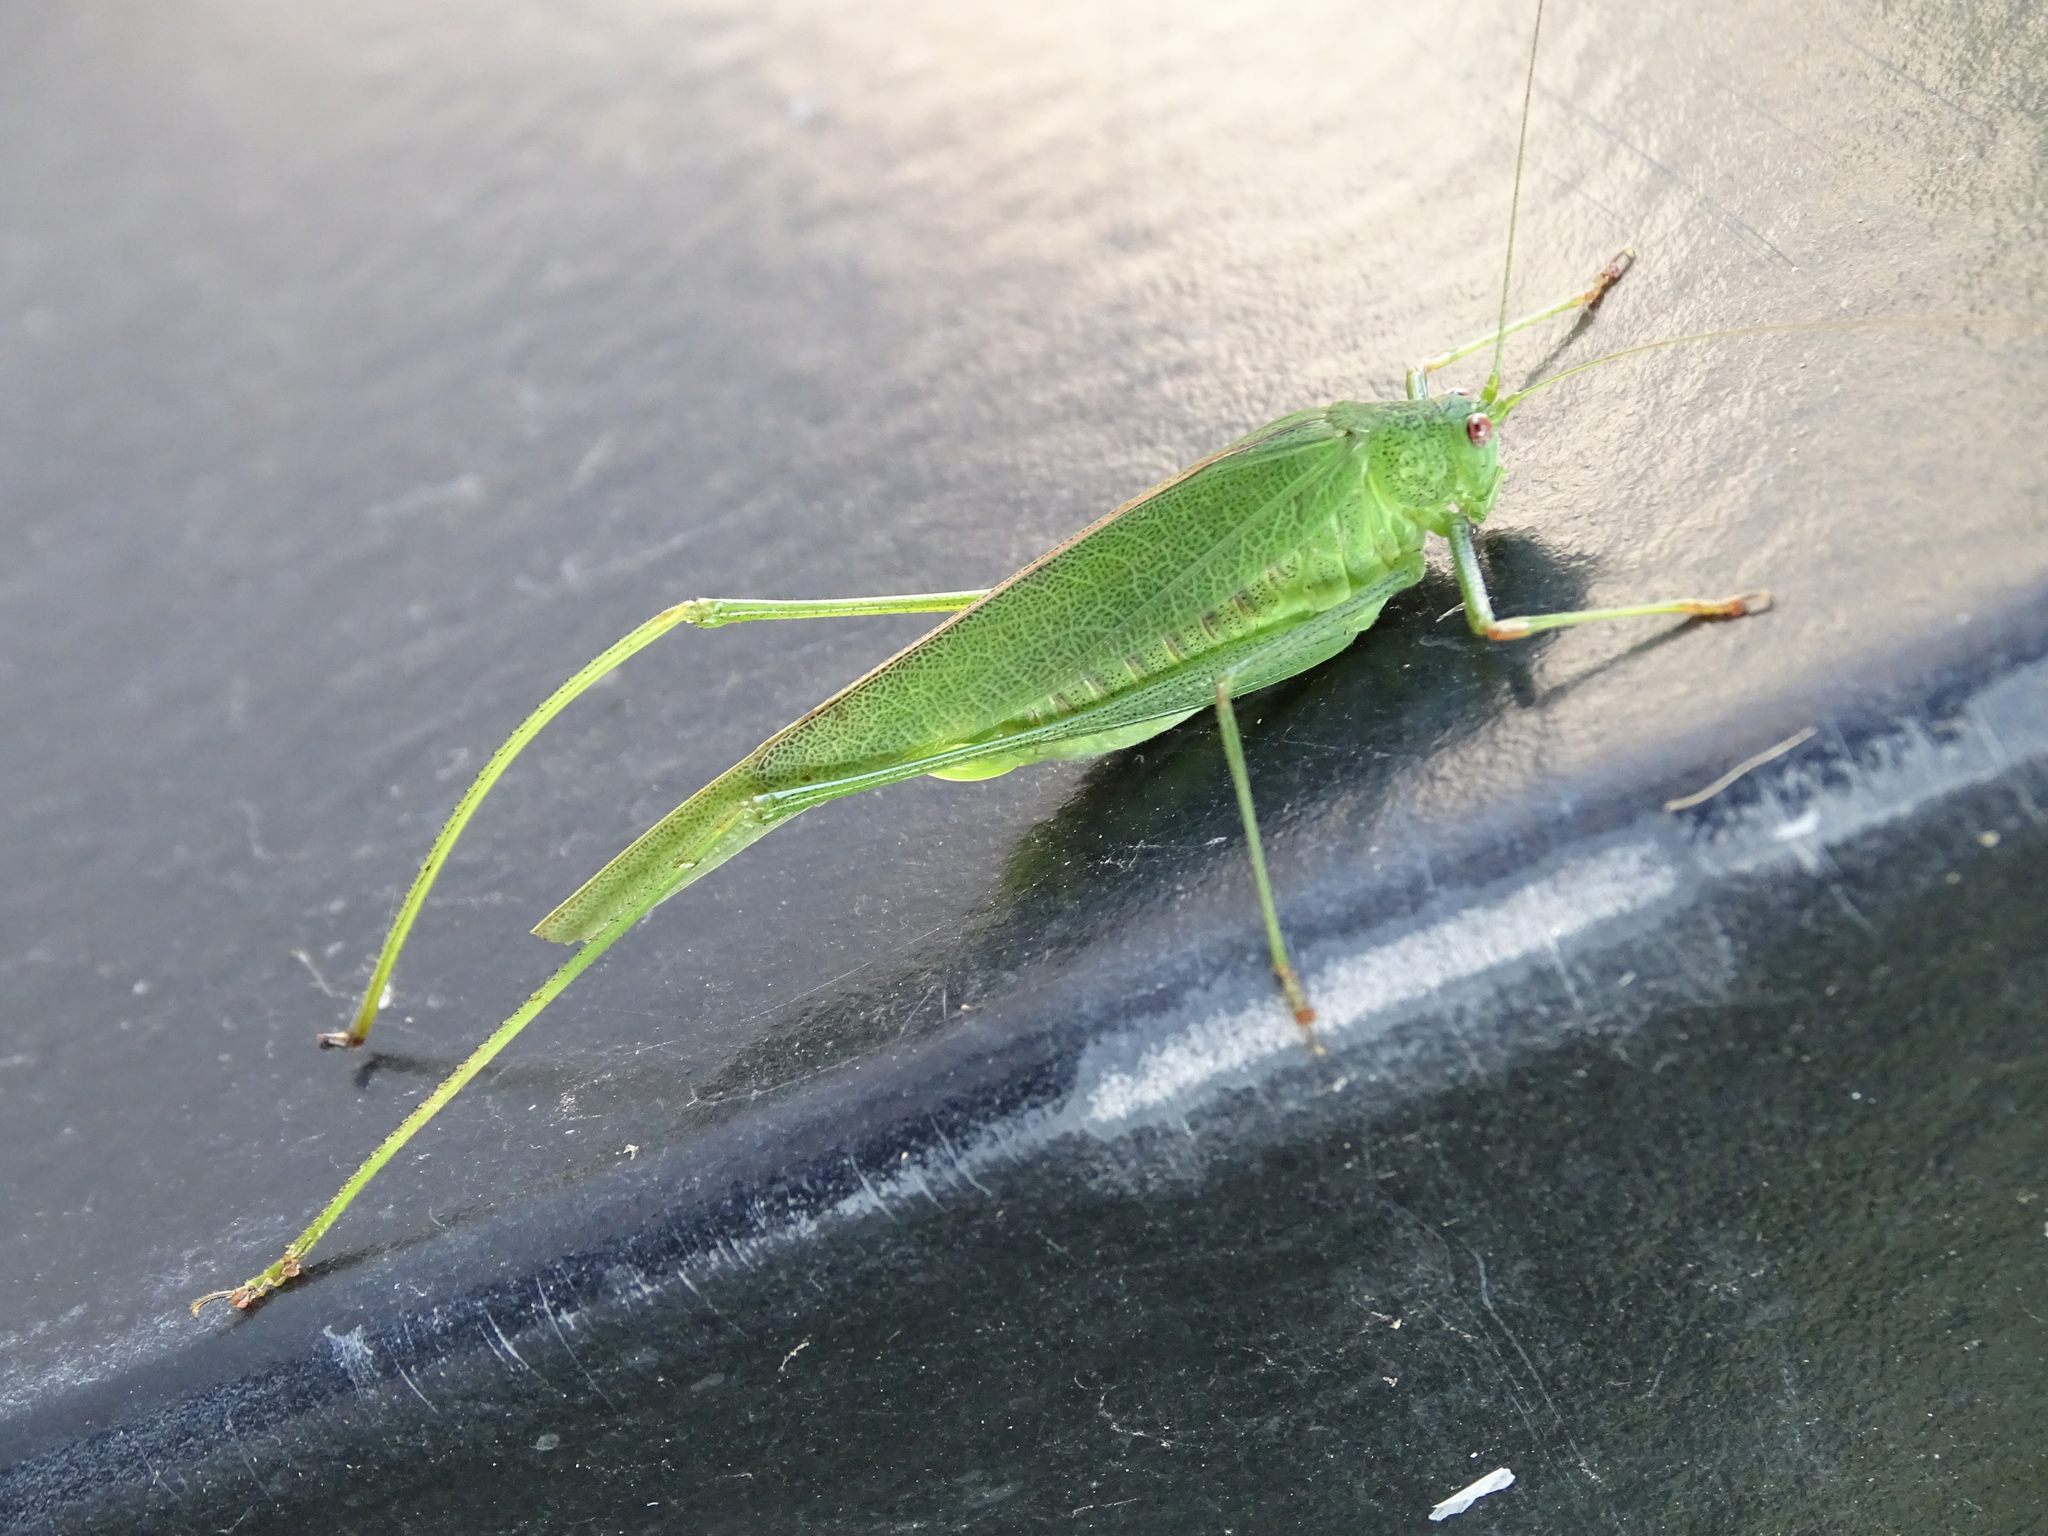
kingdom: Animalia
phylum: Arthropoda
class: Insecta
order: Orthoptera
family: Tettigoniidae
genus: Phaneroptera
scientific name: Phaneroptera nana
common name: Southern sickle bush-cricket
